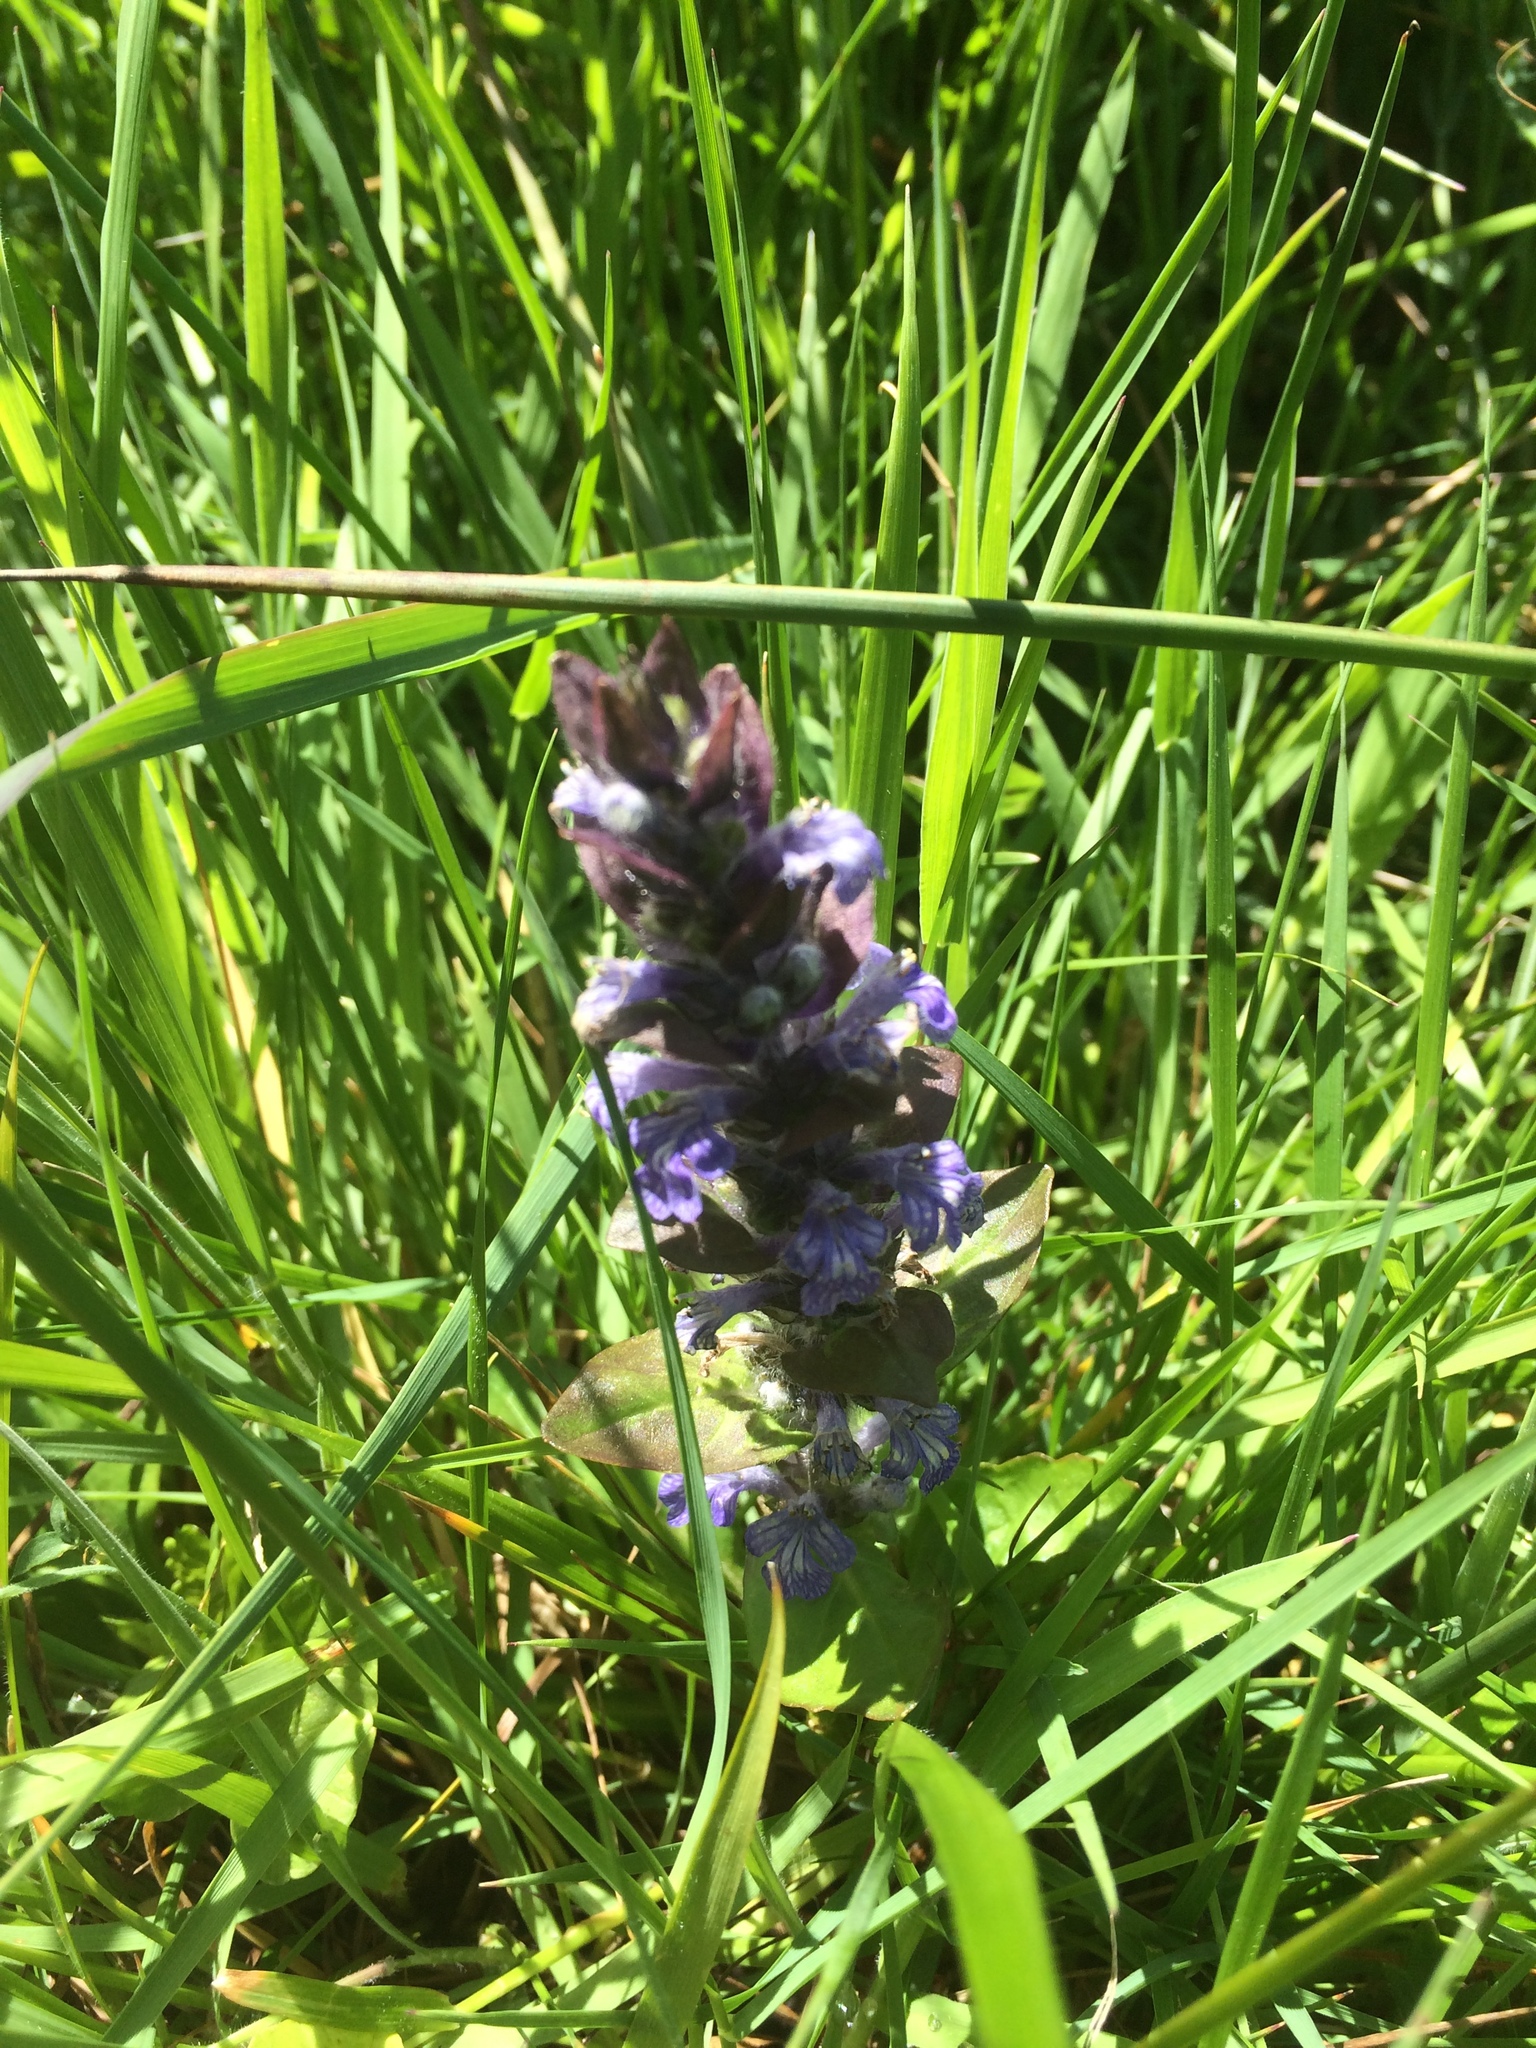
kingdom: Plantae
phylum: Tracheophyta
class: Magnoliopsida
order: Lamiales
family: Lamiaceae
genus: Ajuga
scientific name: Ajuga reptans
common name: Bugle
